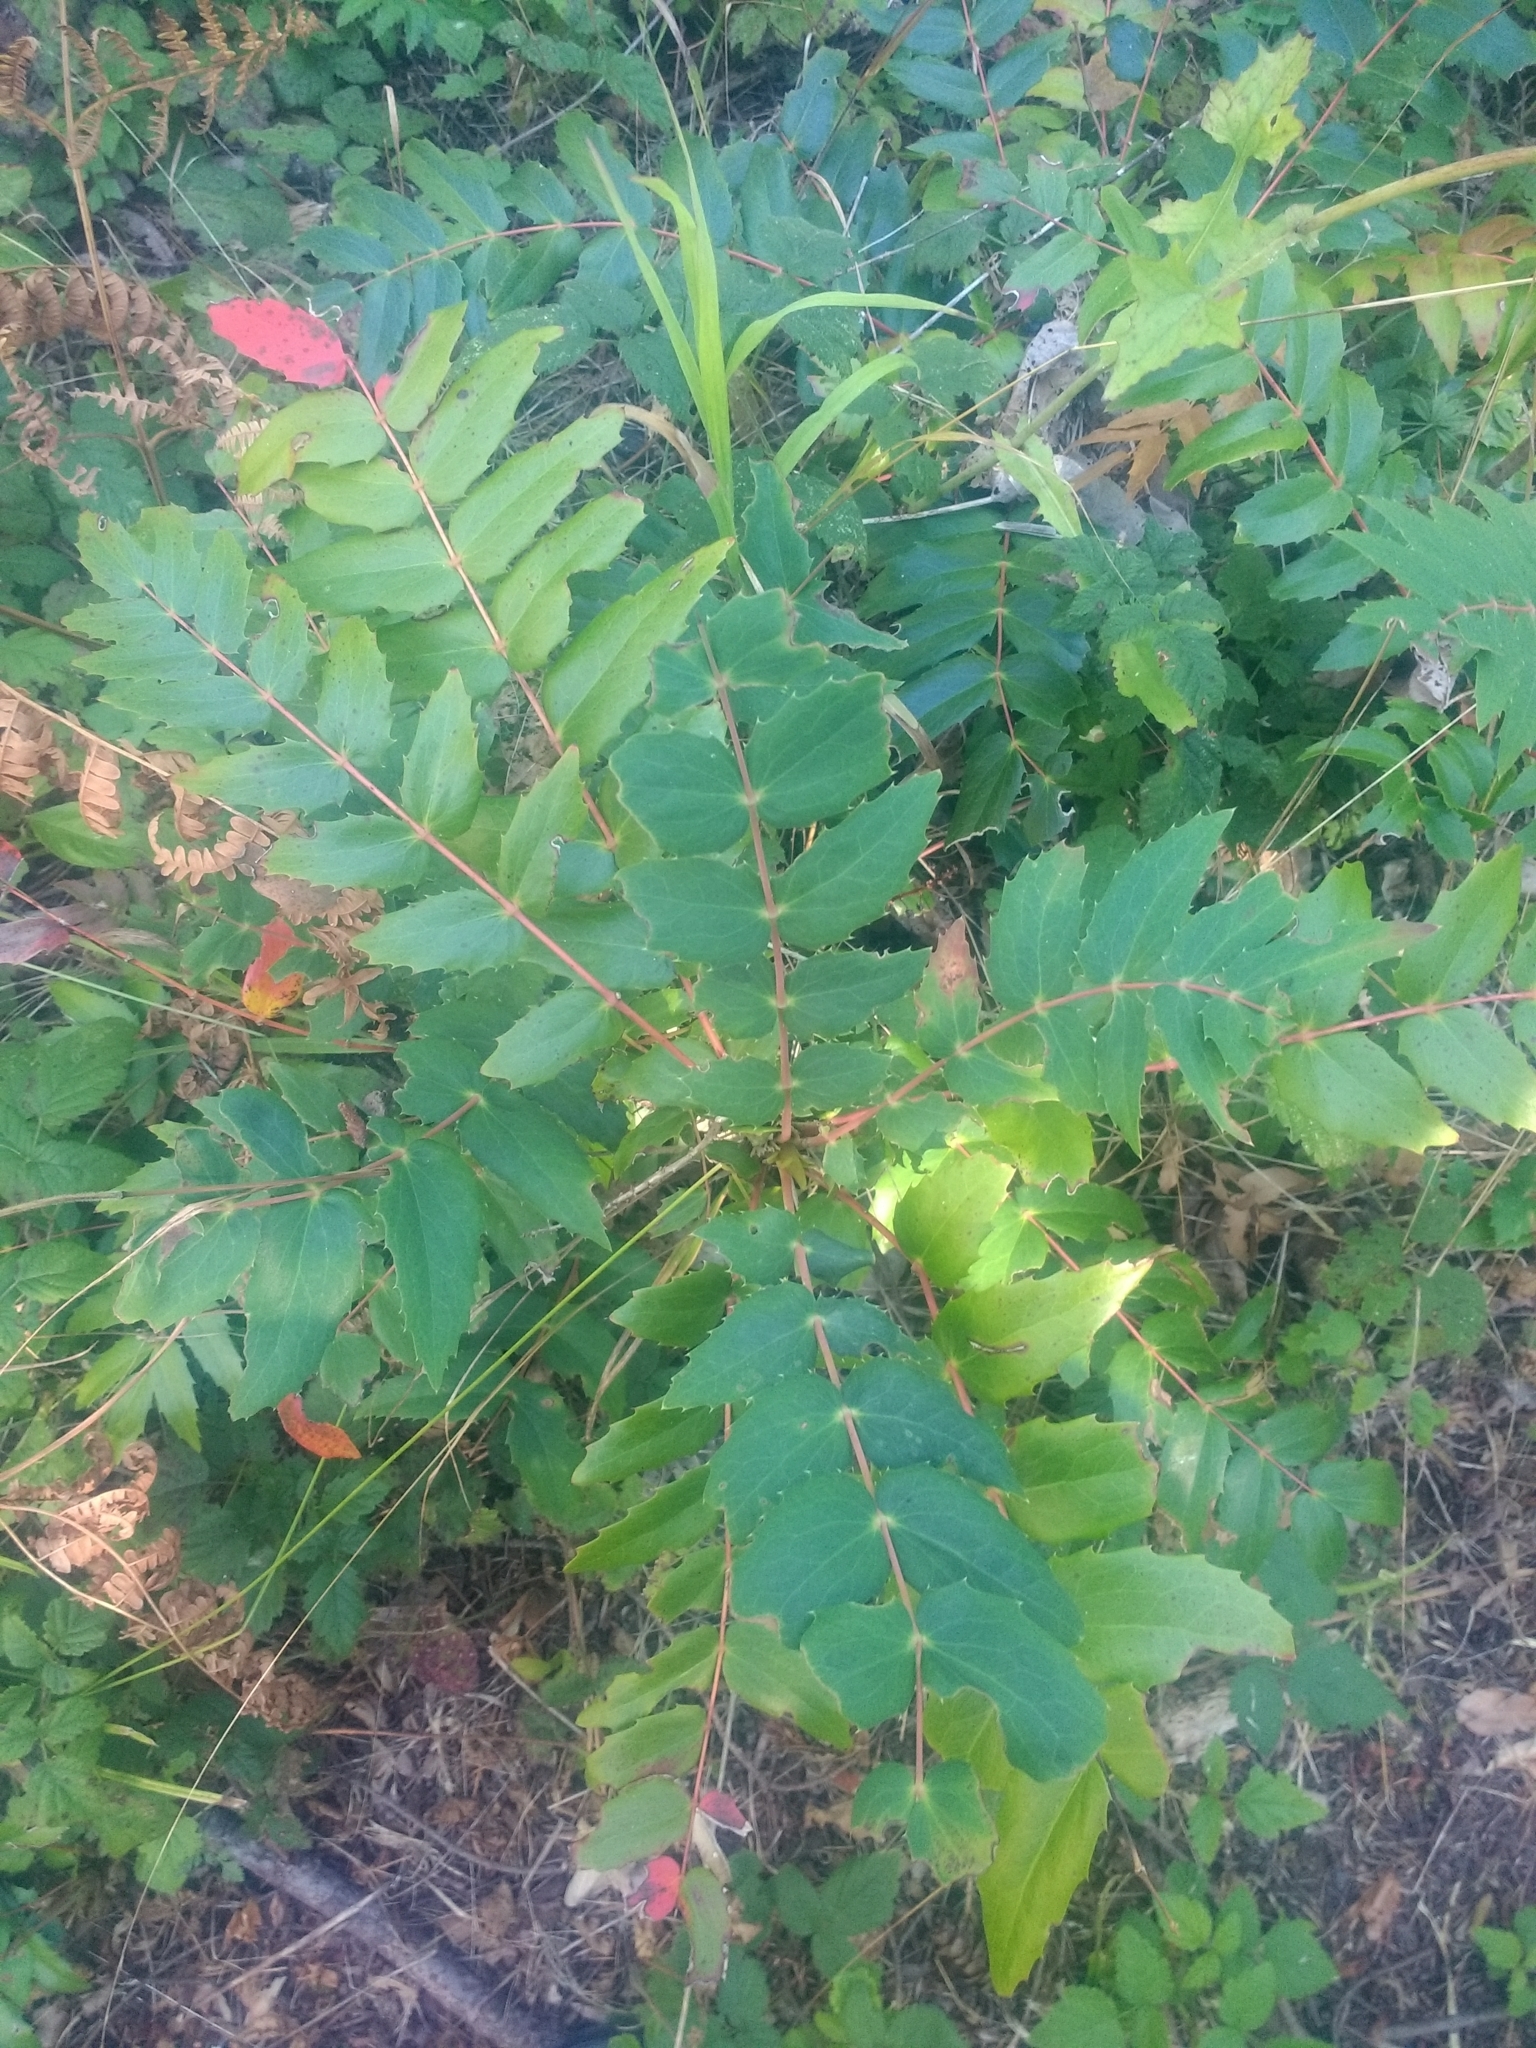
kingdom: Plantae
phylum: Tracheophyta
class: Magnoliopsida
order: Ranunculales
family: Berberidaceae
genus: Mahonia
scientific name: Mahonia nervosa
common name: Cascade oregon-grape
